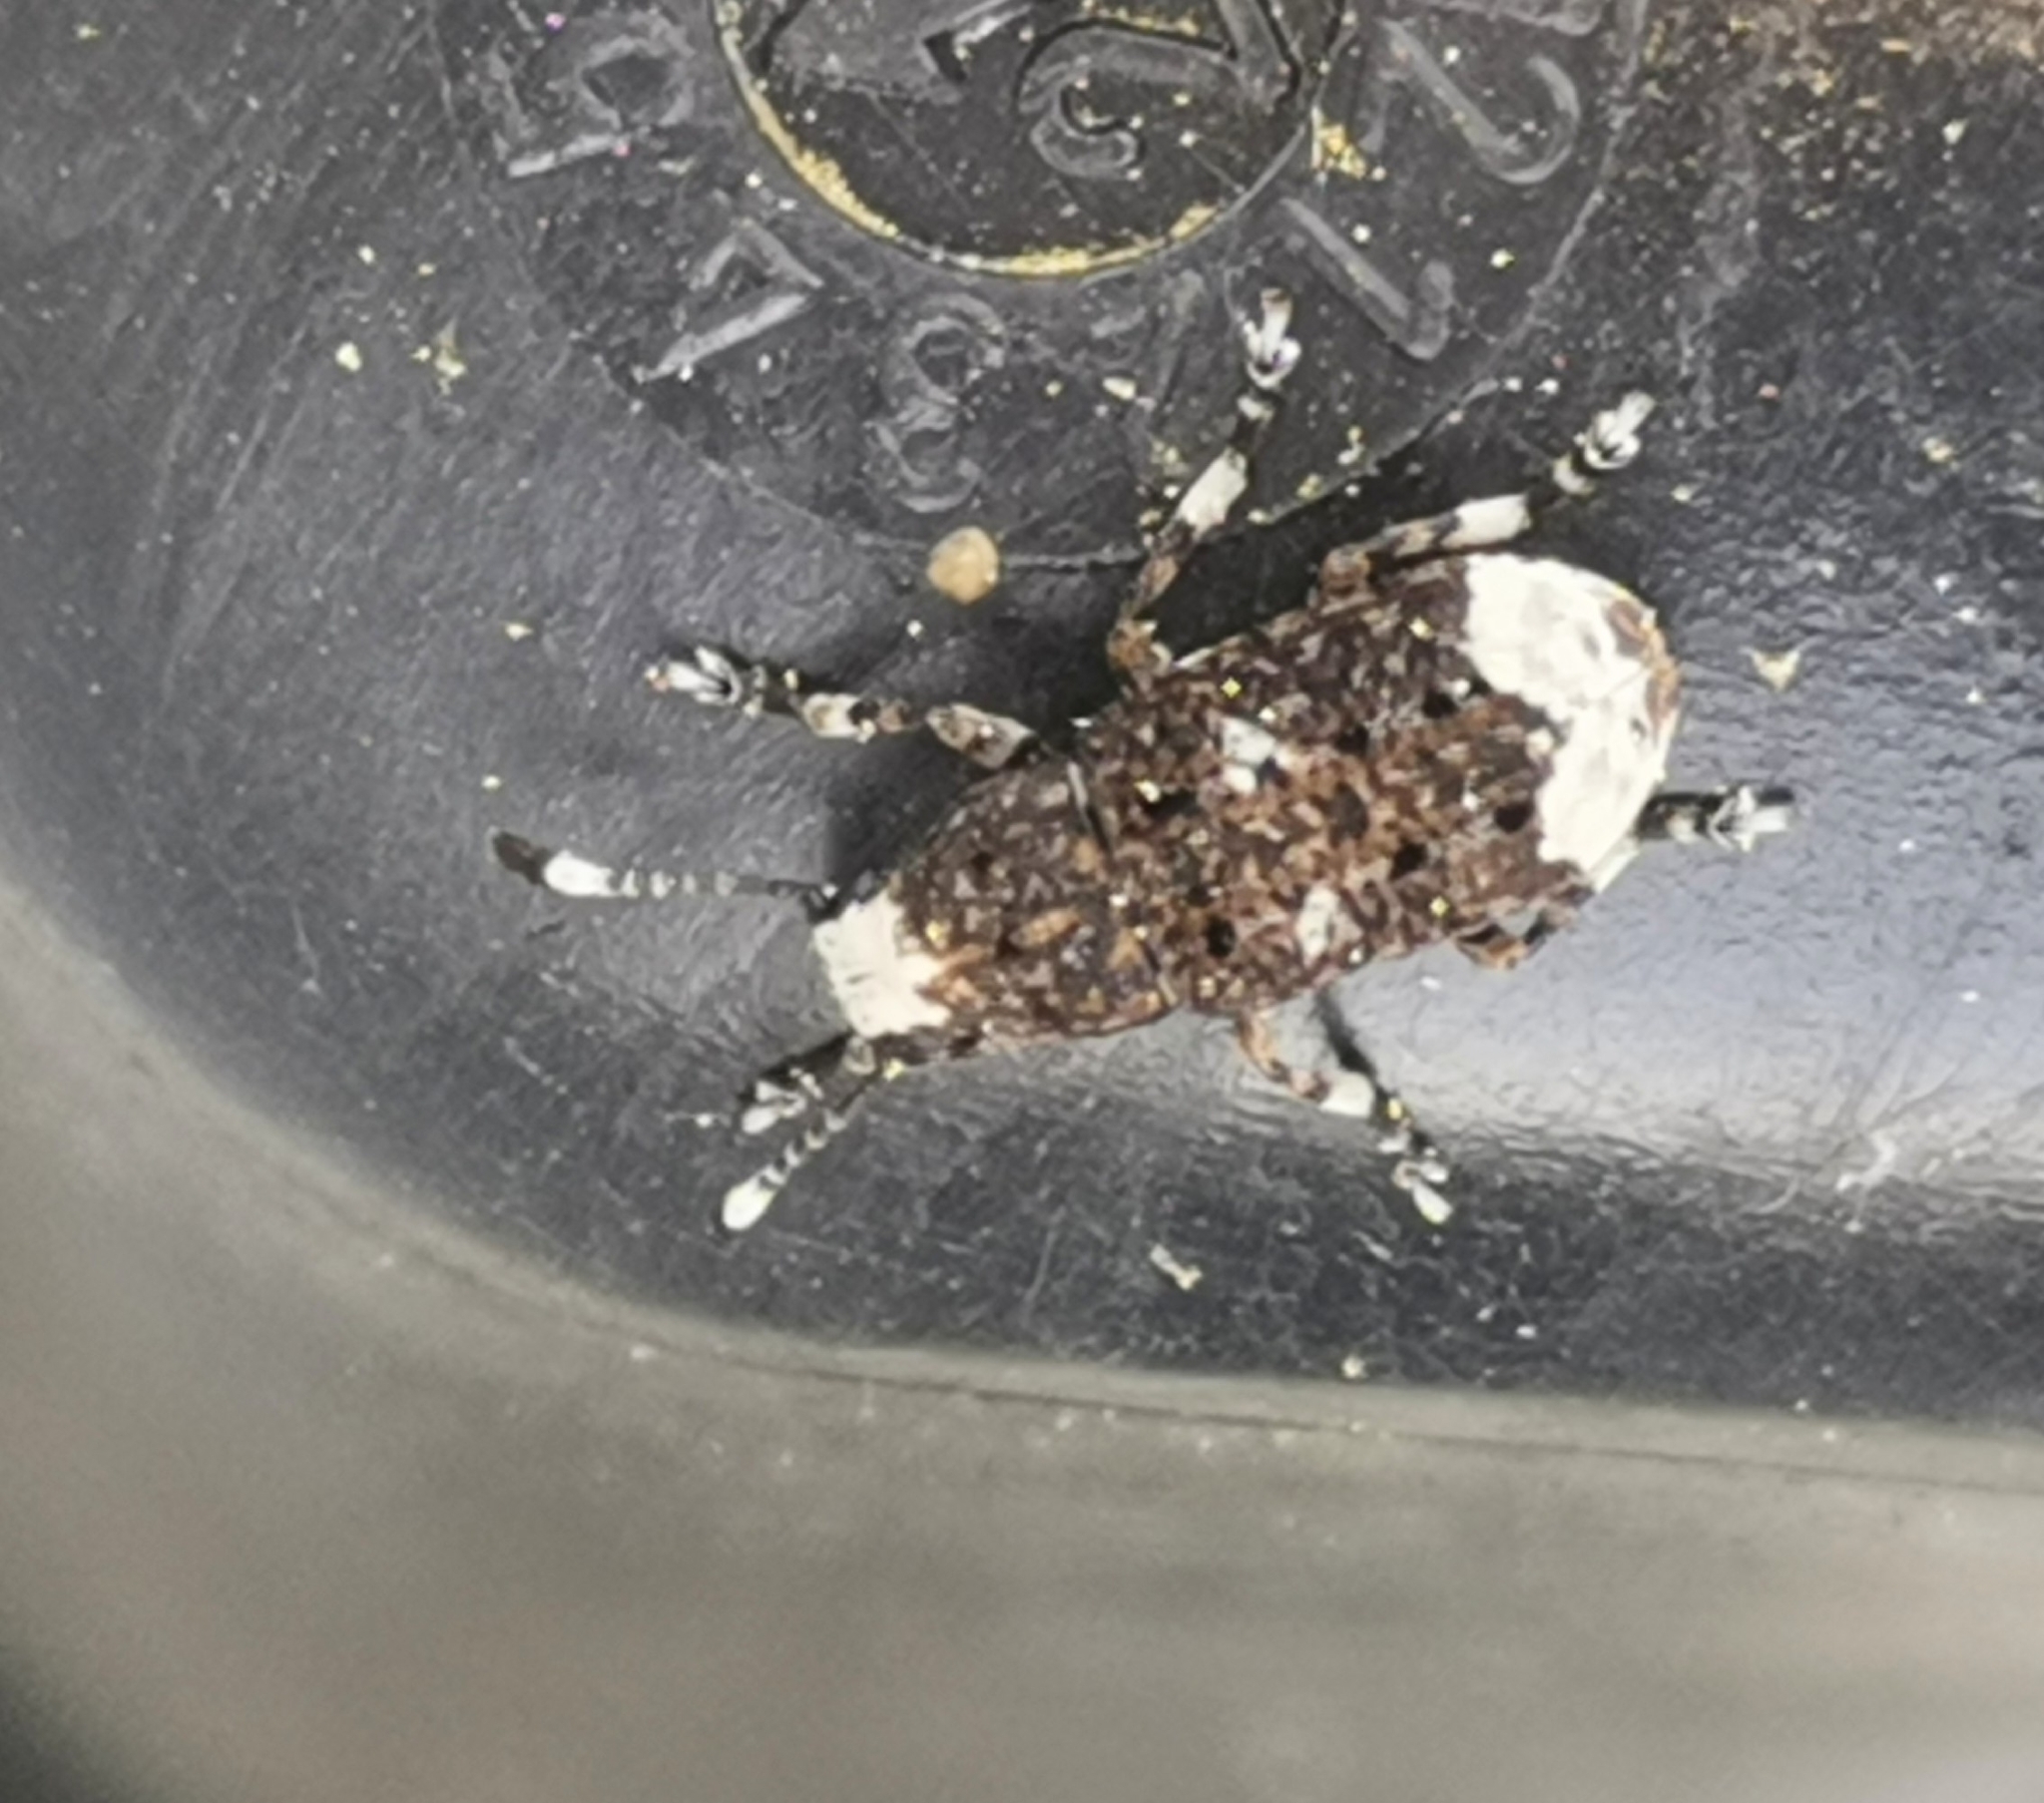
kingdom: Animalia
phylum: Arthropoda
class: Insecta
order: Coleoptera
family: Anthribidae
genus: Platystomos
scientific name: Platystomos albinus
